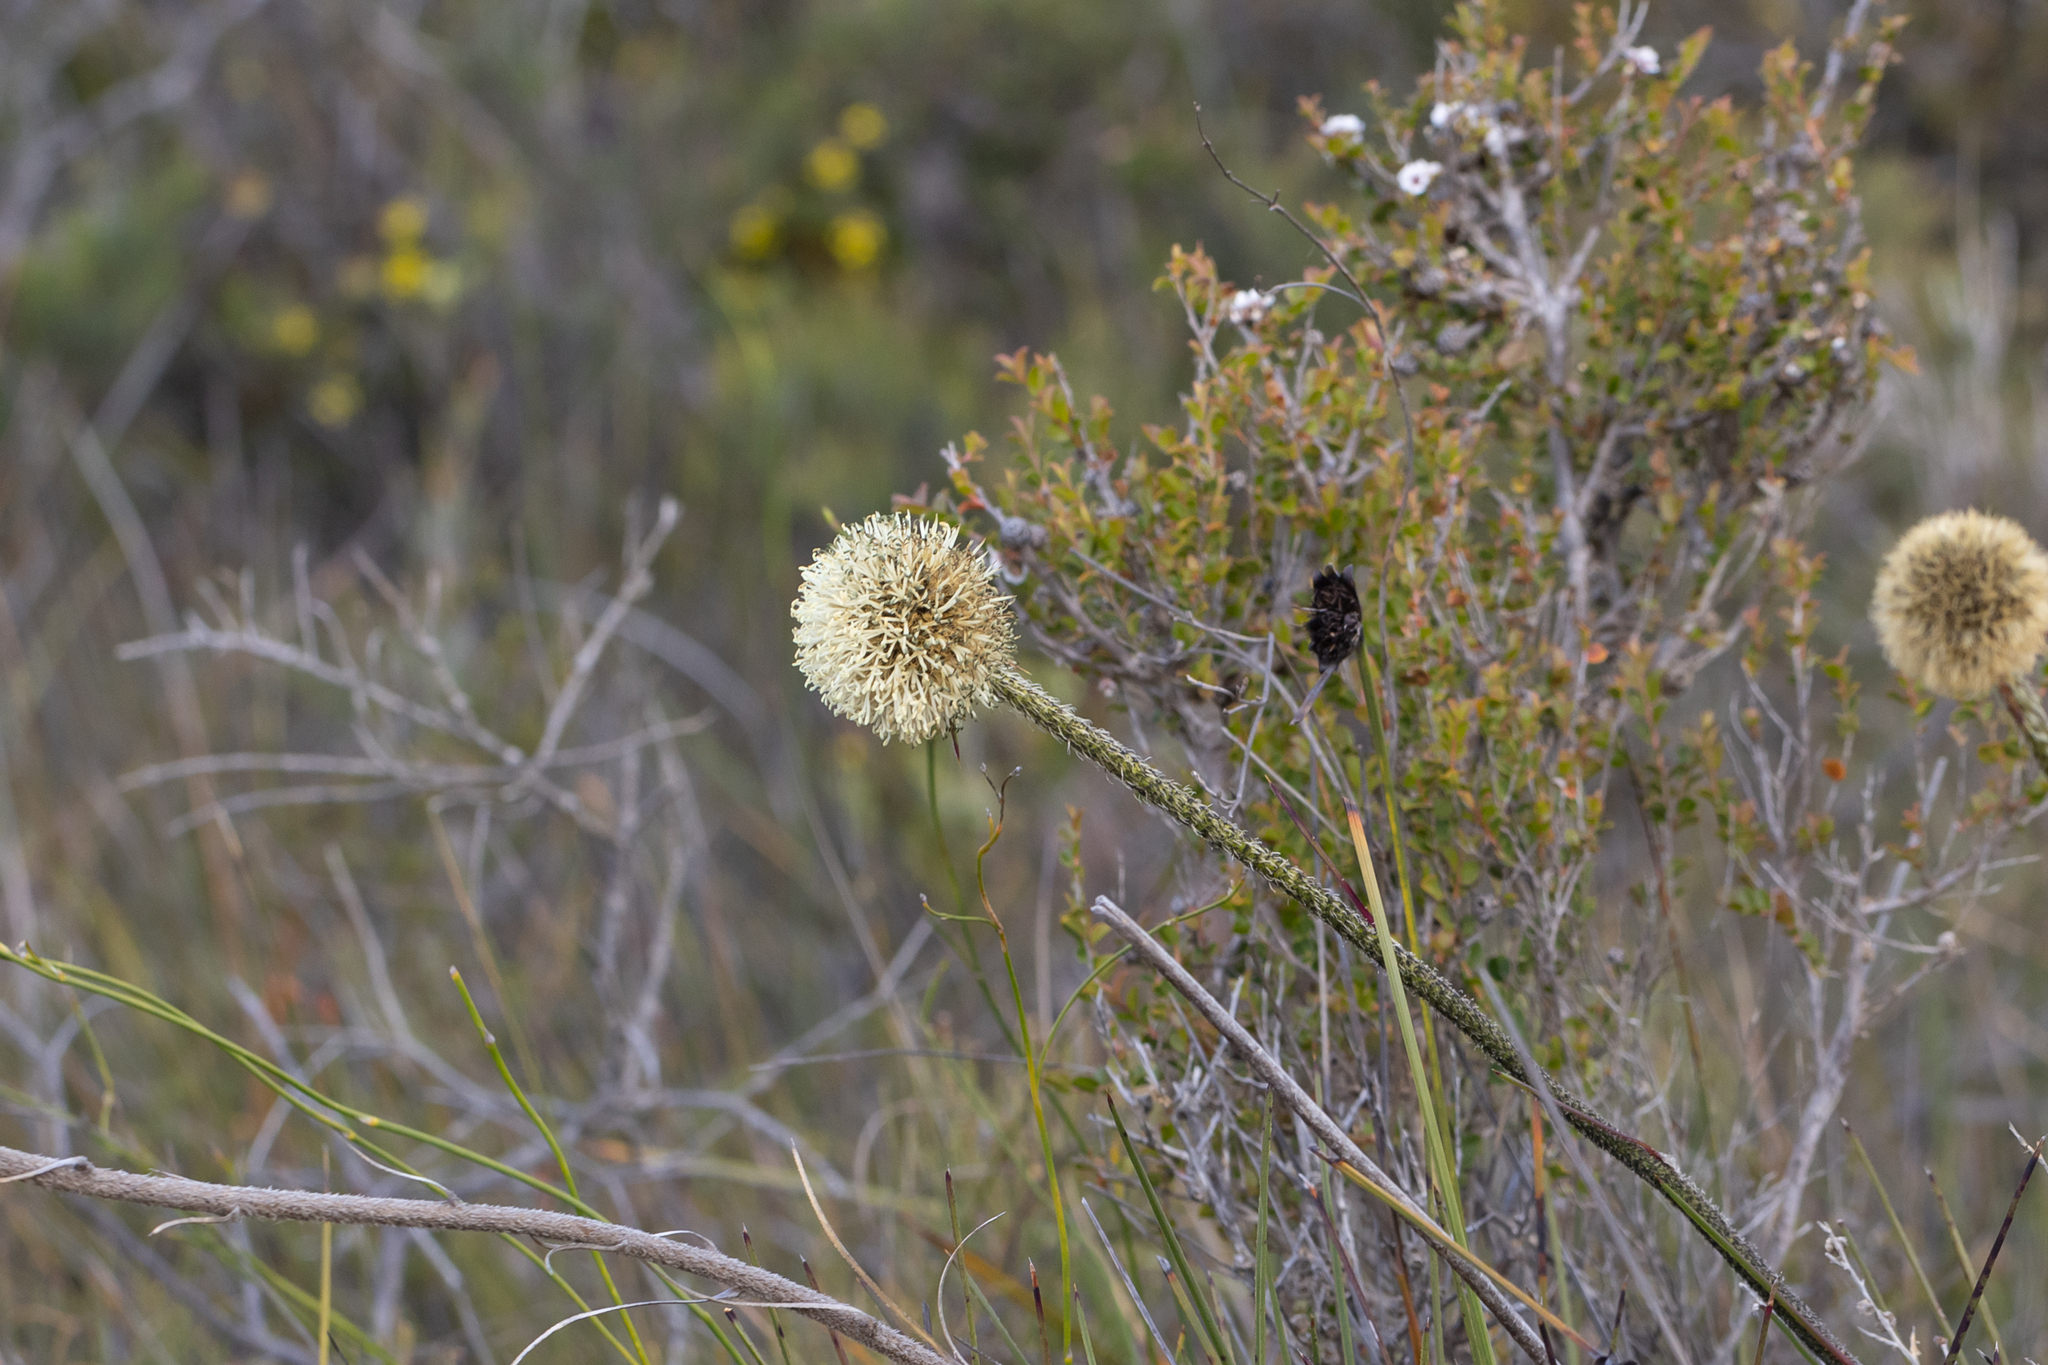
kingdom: Plantae
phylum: Tracheophyta
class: Liliopsida
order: Arecales
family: Dasypogonaceae
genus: Dasypogon
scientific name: Dasypogon bromeliifolius
